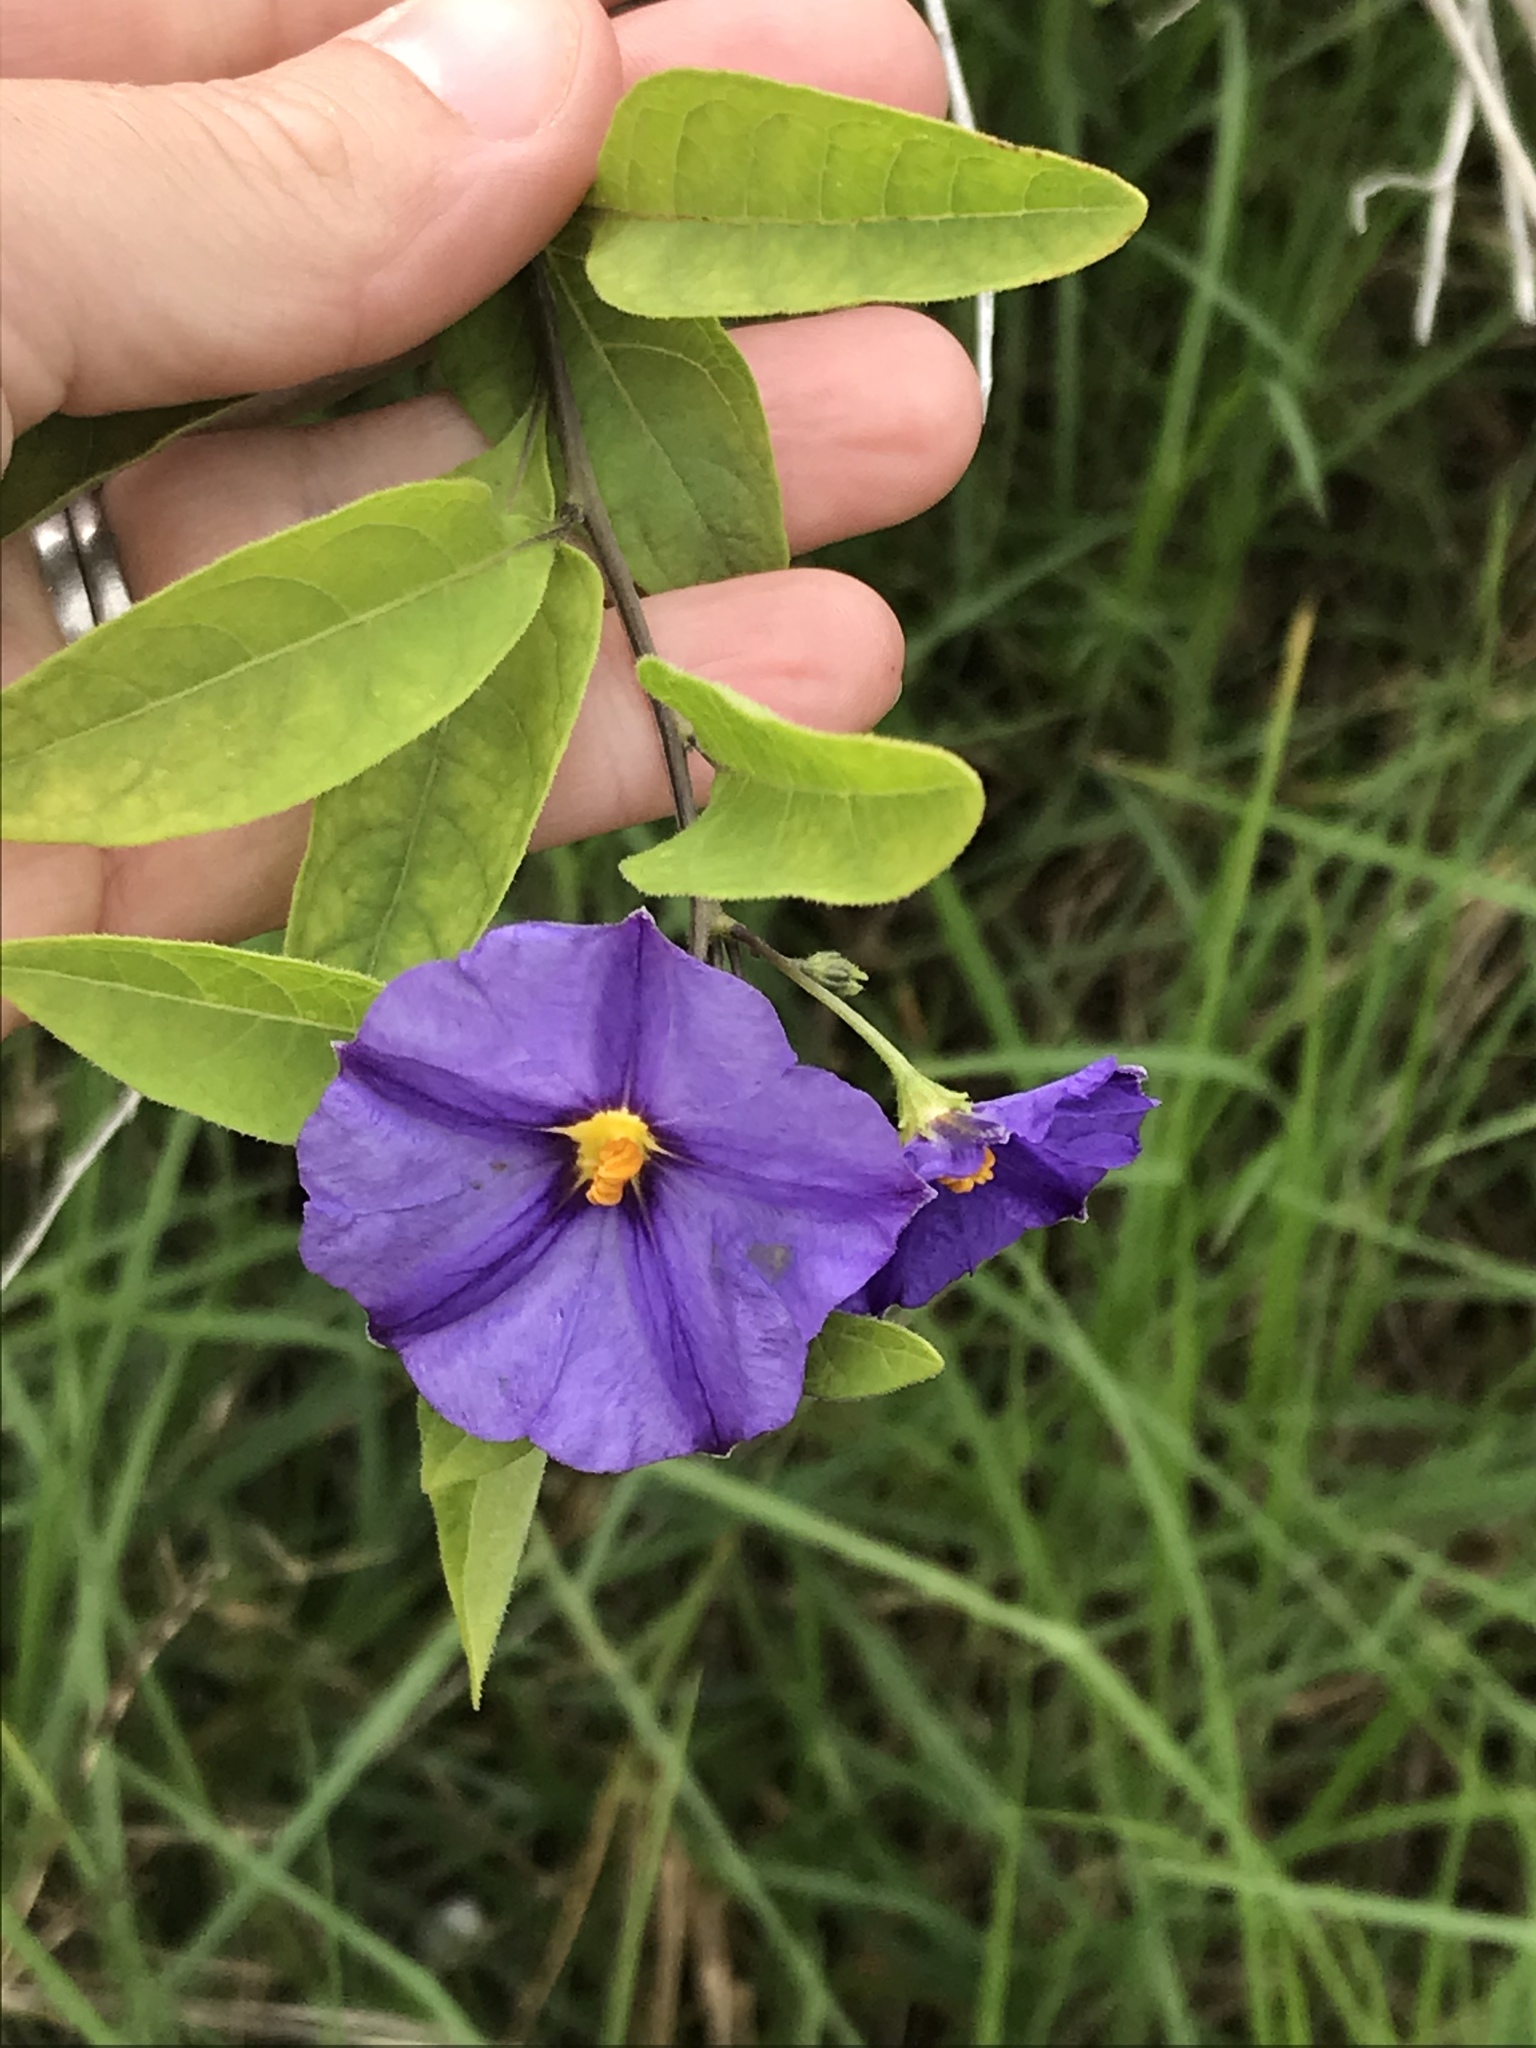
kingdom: Plantae
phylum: Tracheophyta
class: Magnoliopsida
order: Solanales
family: Solanaceae
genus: Lycianthes
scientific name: Lycianthes rantonnetii
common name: Blue potatobush
